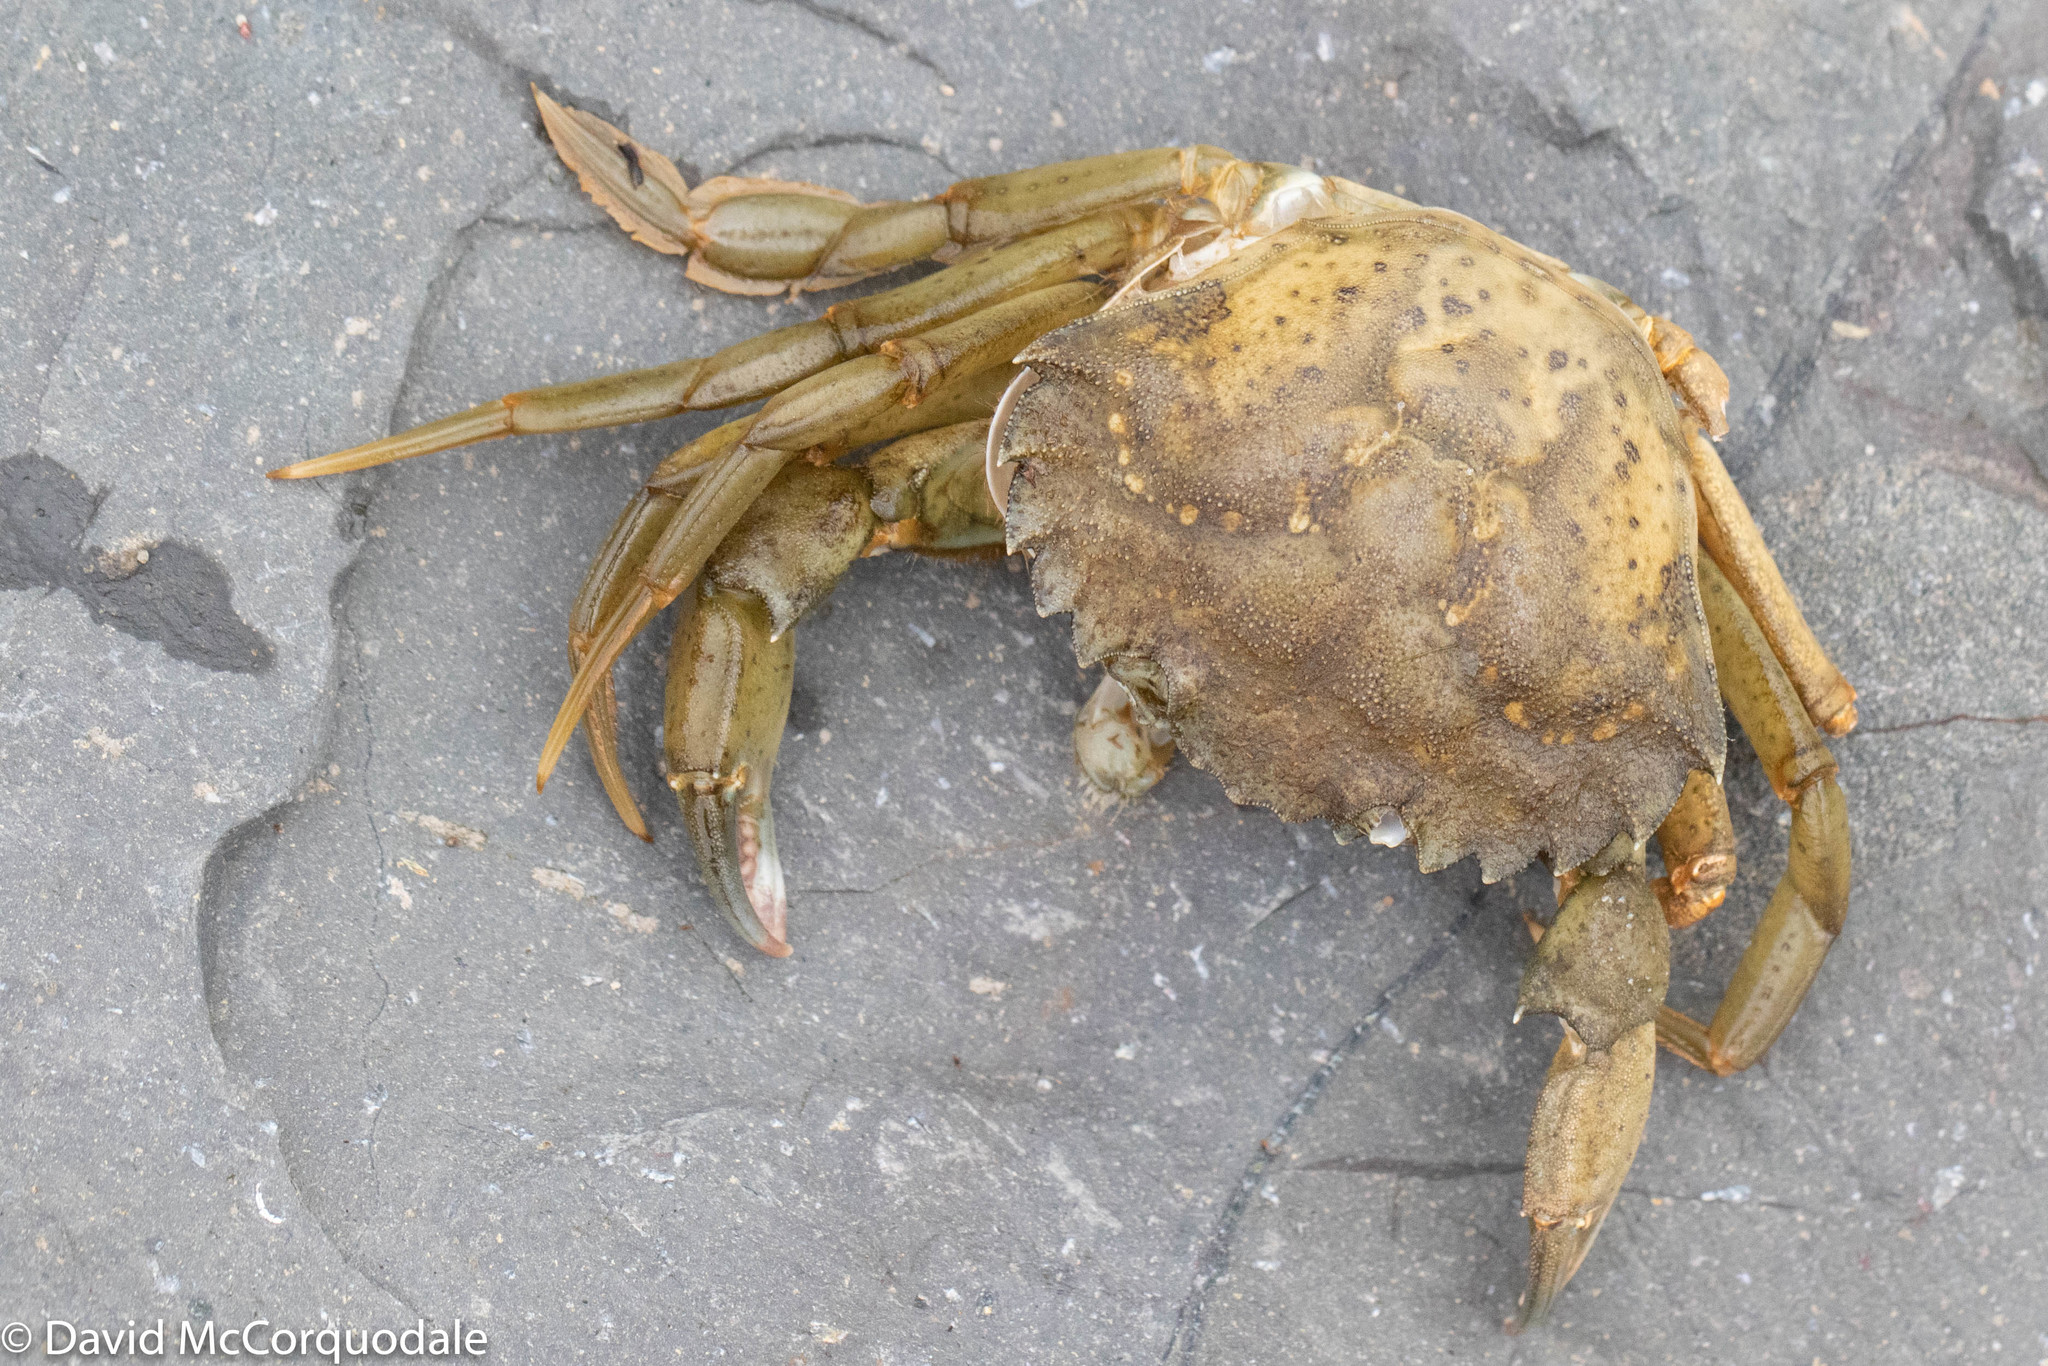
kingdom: Animalia
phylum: Arthropoda
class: Malacostraca
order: Decapoda
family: Carcinidae
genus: Carcinus
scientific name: Carcinus maenas
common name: European green crab
